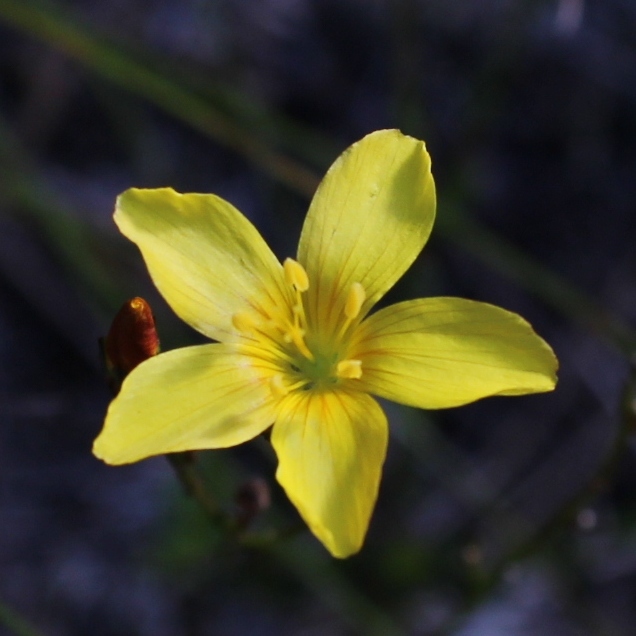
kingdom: Plantae
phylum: Tracheophyta
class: Magnoliopsida
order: Malpighiales
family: Linaceae
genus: Linum
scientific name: Linum africanum
